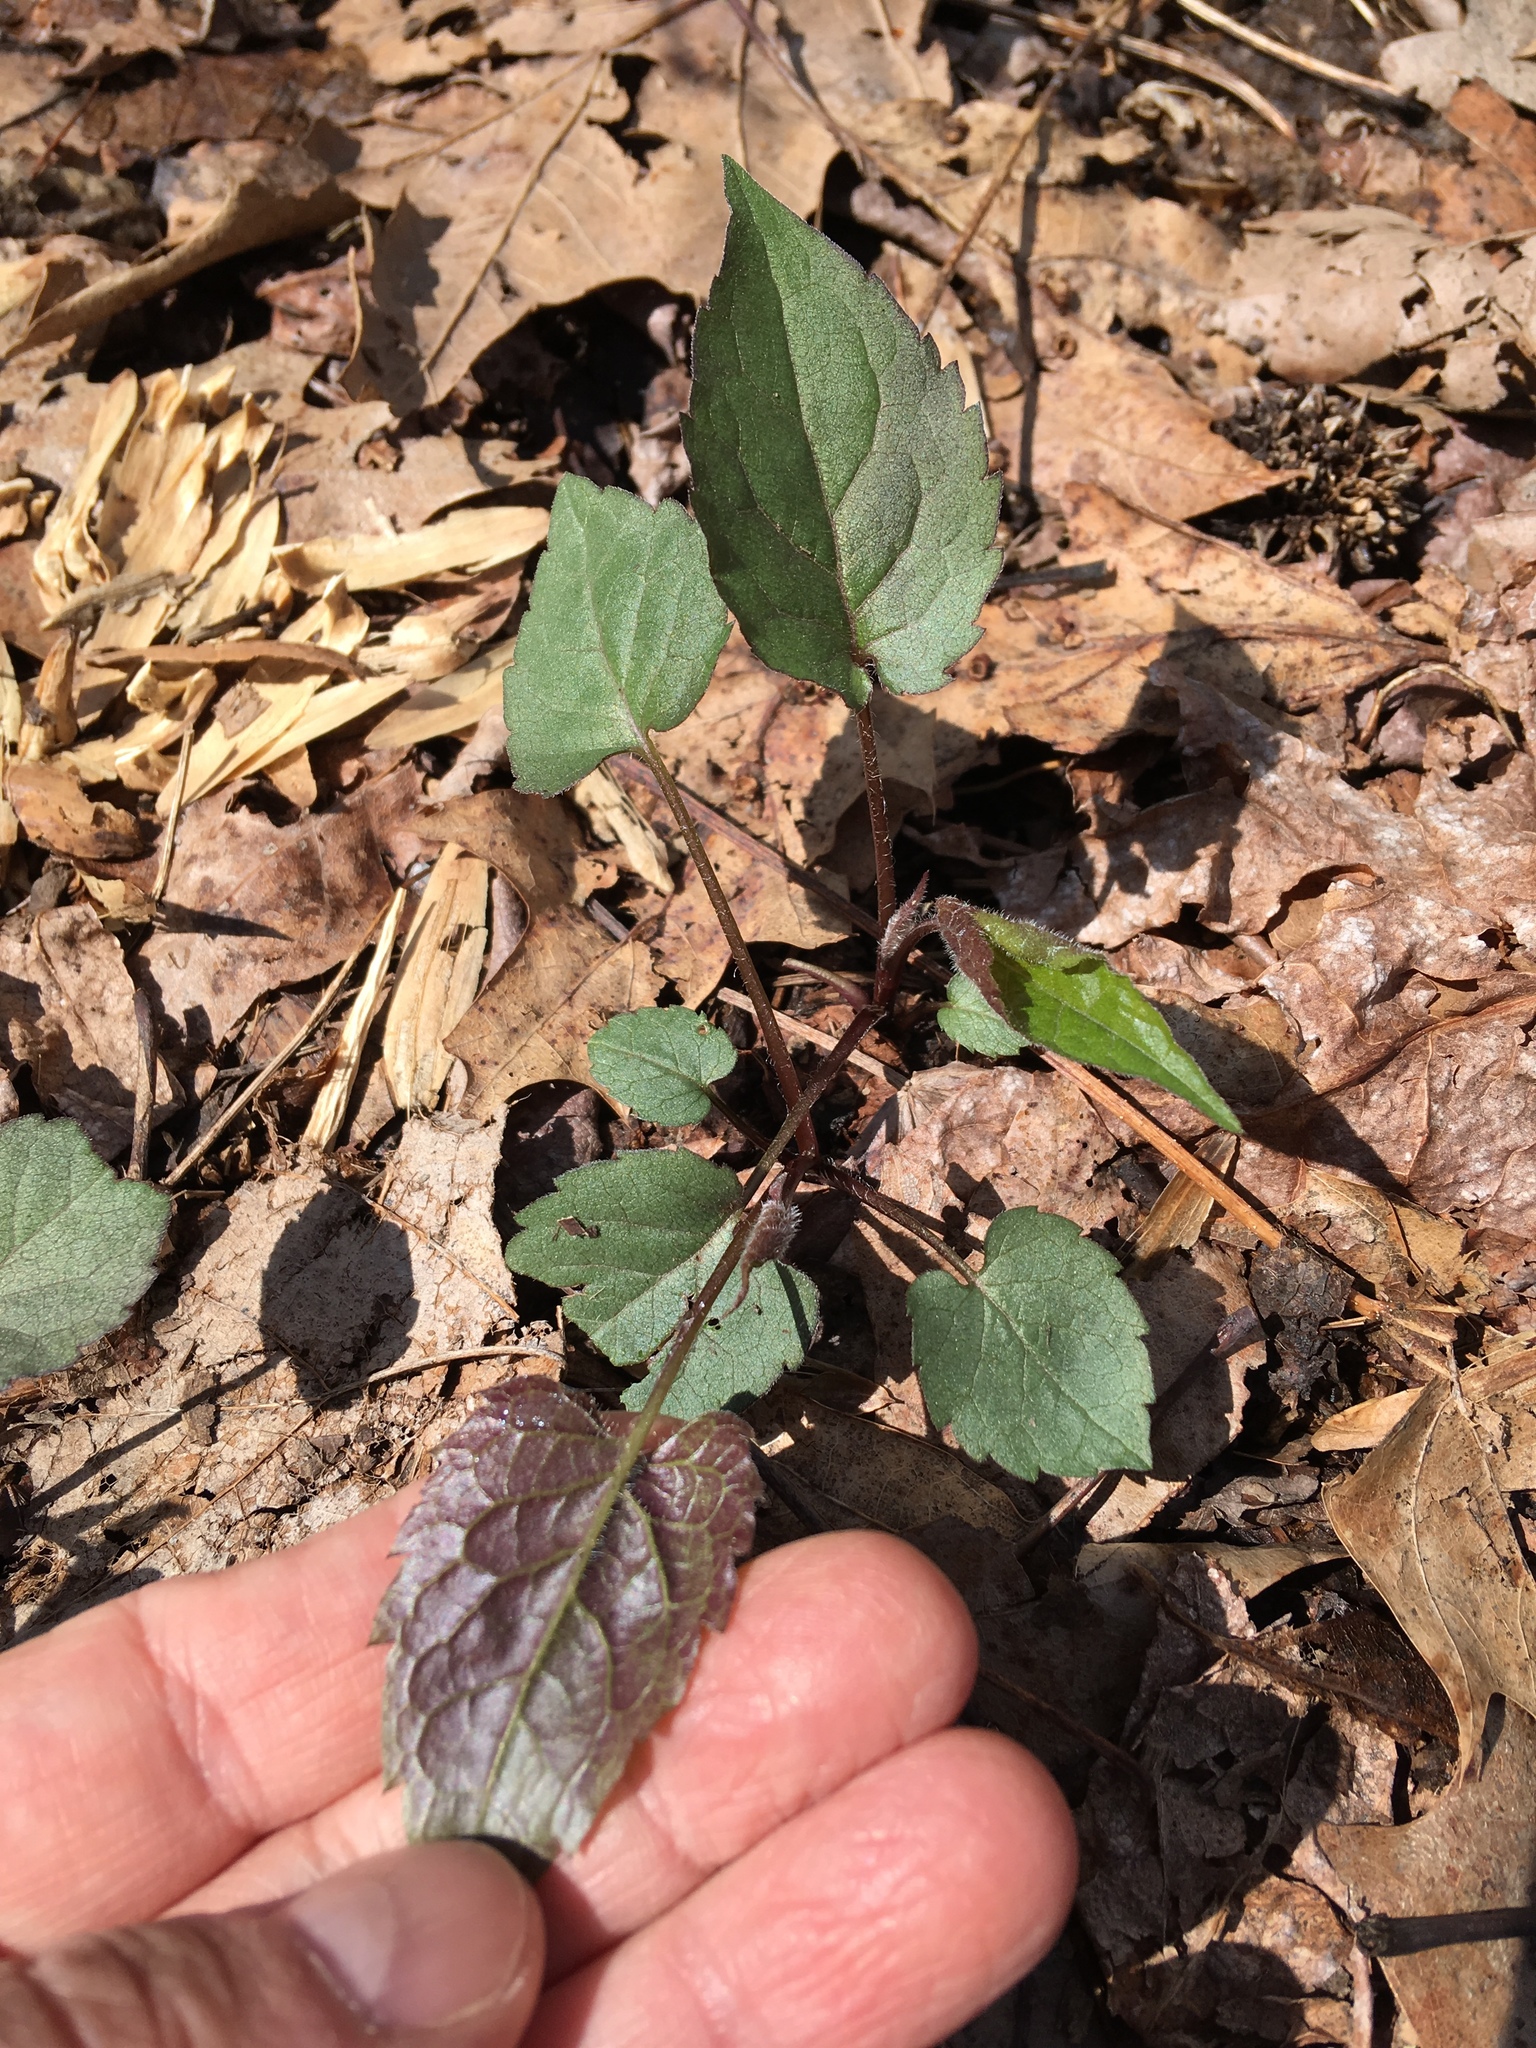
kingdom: Plantae
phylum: Tracheophyta
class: Magnoliopsida
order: Asterales
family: Asteraceae
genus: Eurybia
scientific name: Eurybia divaricata
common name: White wood aster
